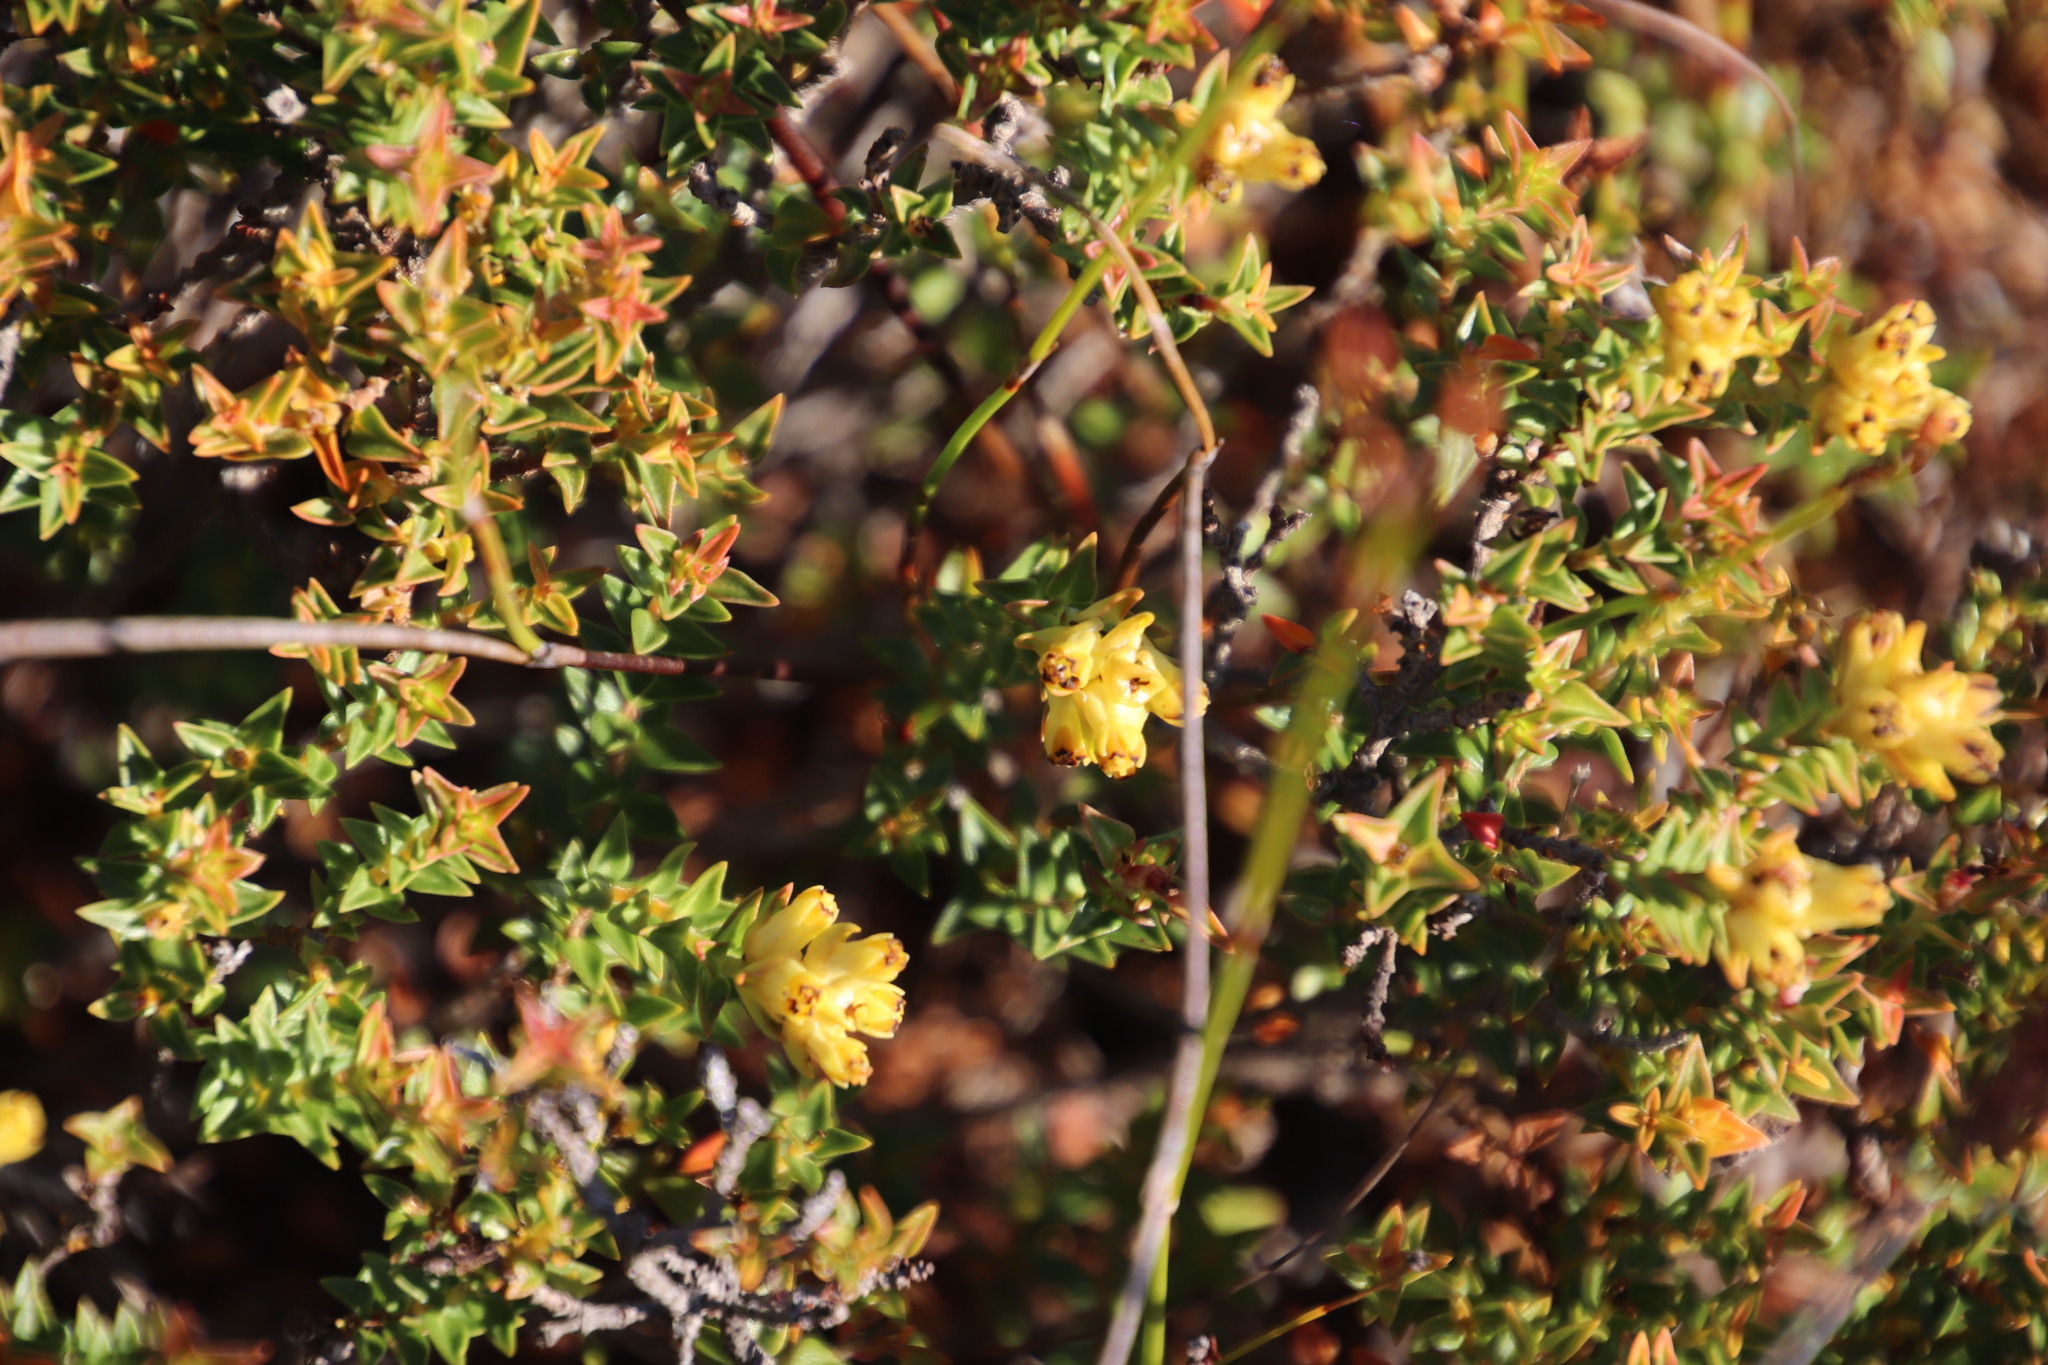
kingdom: Plantae
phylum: Tracheophyta
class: Magnoliopsida
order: Myrtales
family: Penaeaceae
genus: Penaea
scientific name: Penaea mucronata
